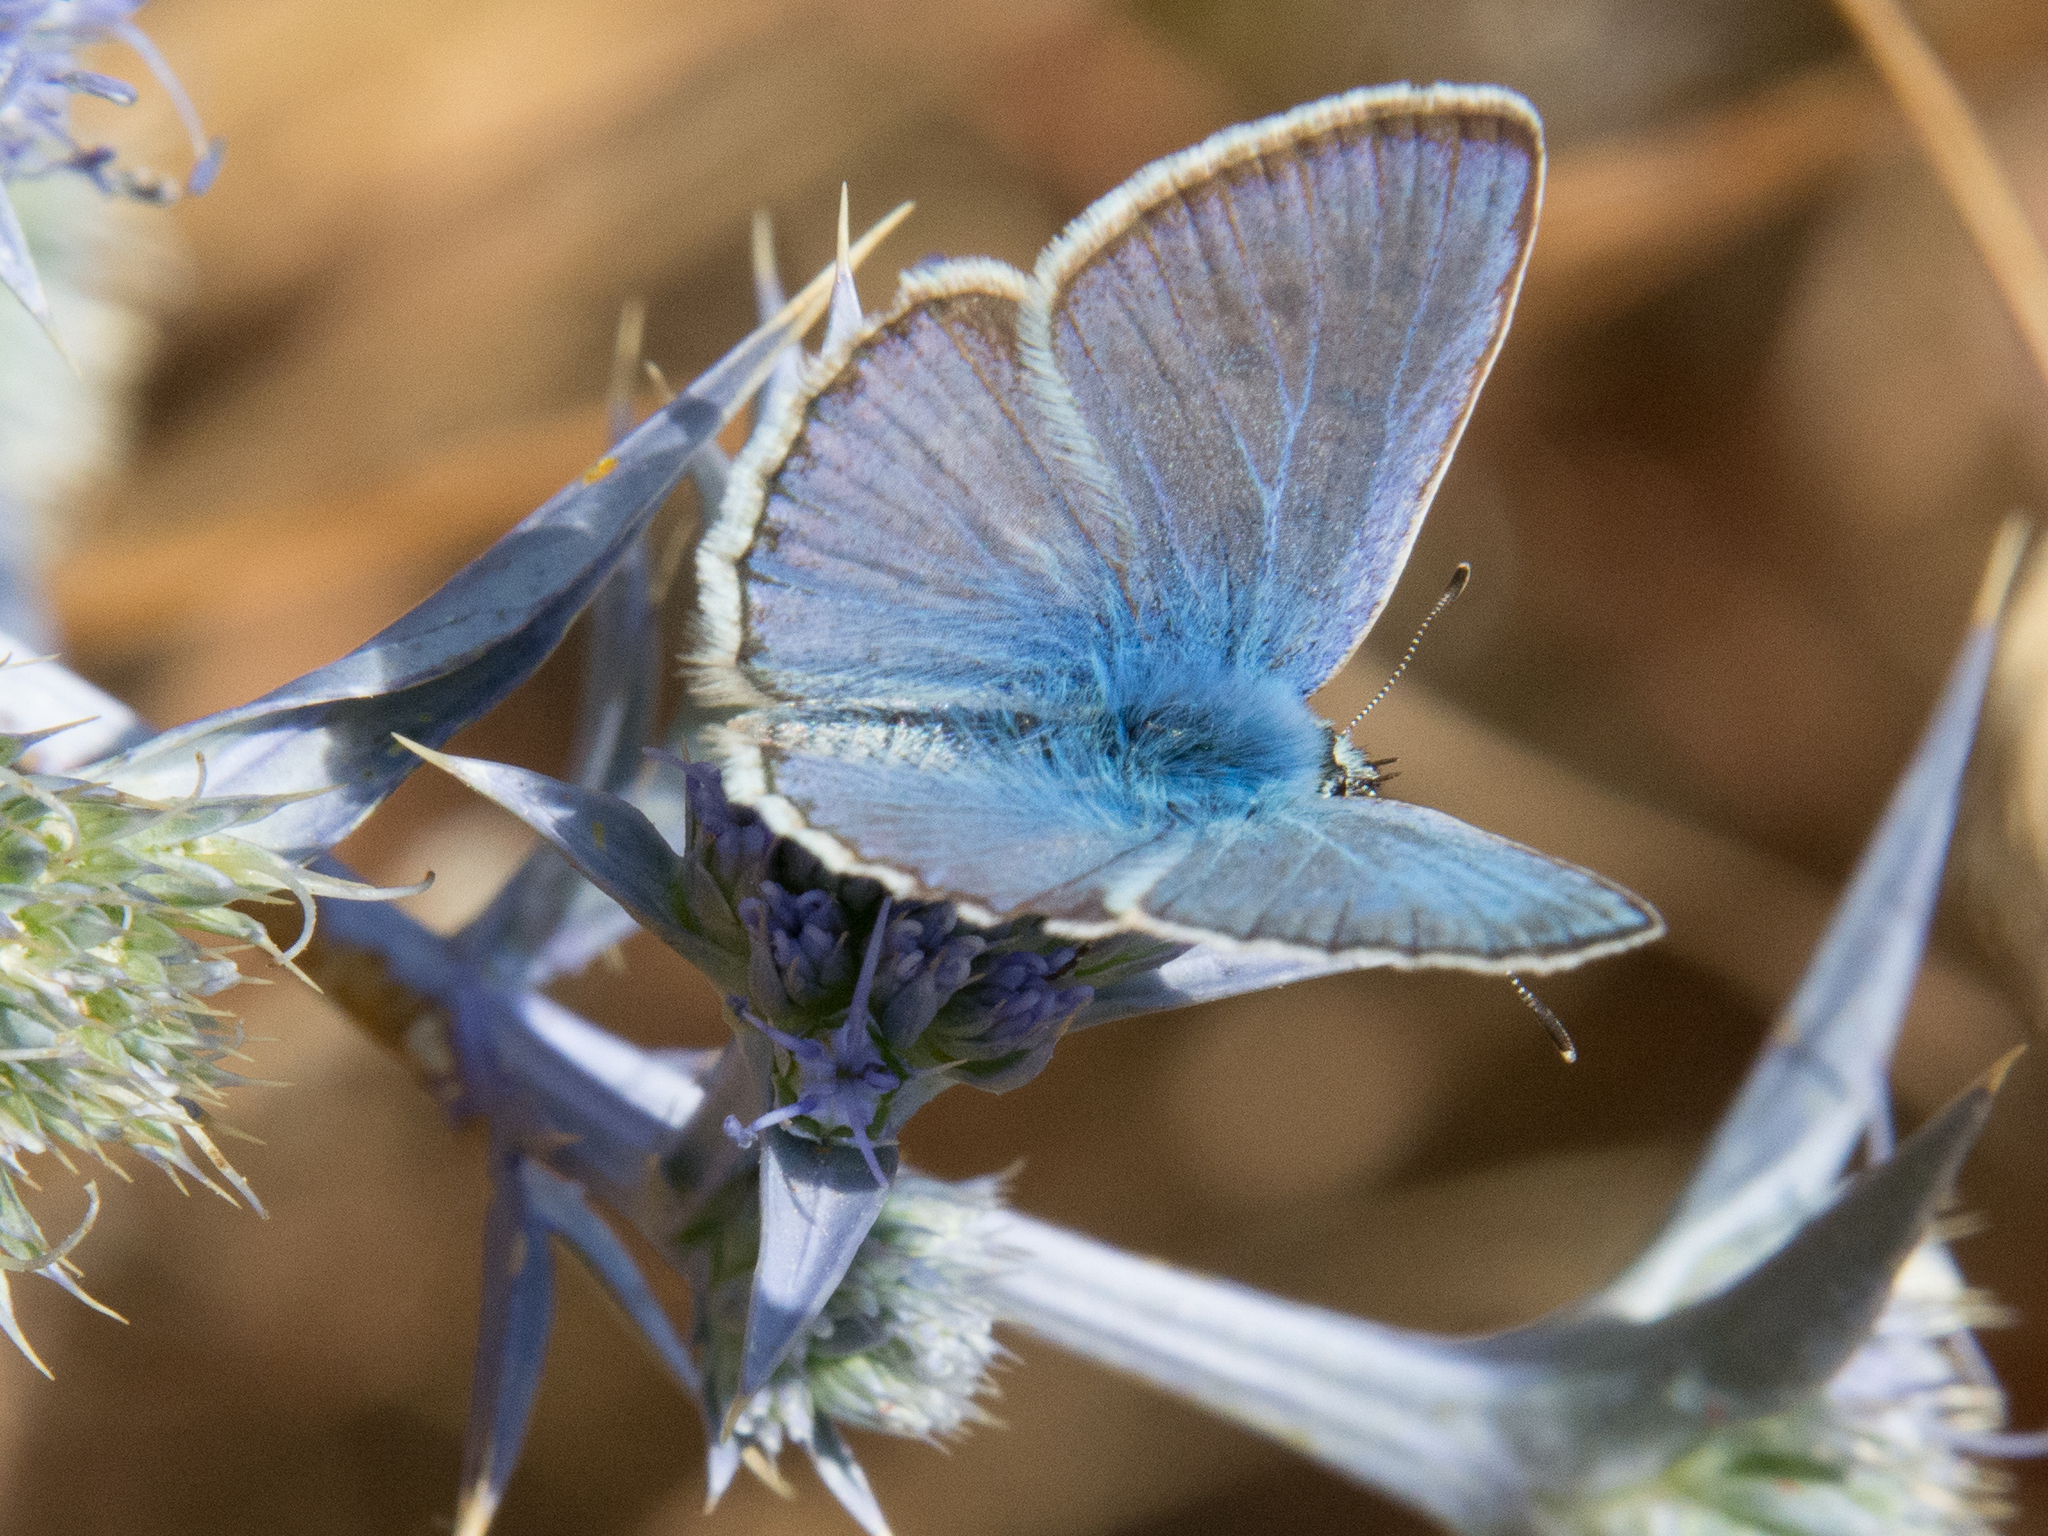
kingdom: Animalia
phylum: Arthropoda
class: Insecta
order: Lepidoptera
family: Lycaenidae
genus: Polyommatus
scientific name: Polyommatus celina
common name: Austaut's blue
